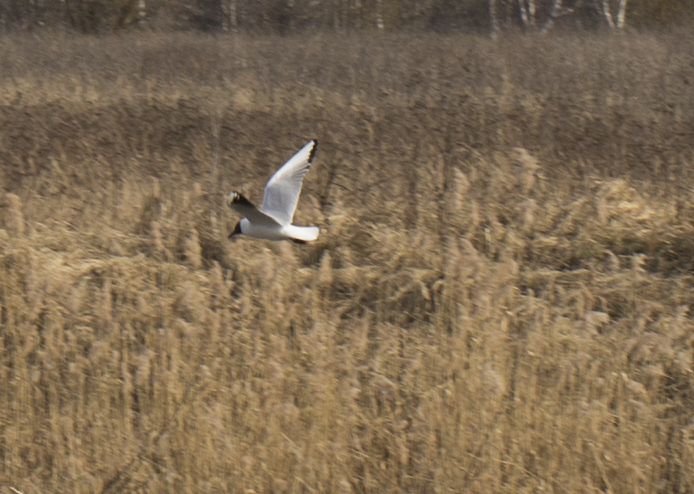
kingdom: Animalia
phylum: Chordata
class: Aves
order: Charadriiformes
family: Laridae
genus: Chroicocephalus
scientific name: Chroicocephalus ridibundus
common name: Black-headed gull
